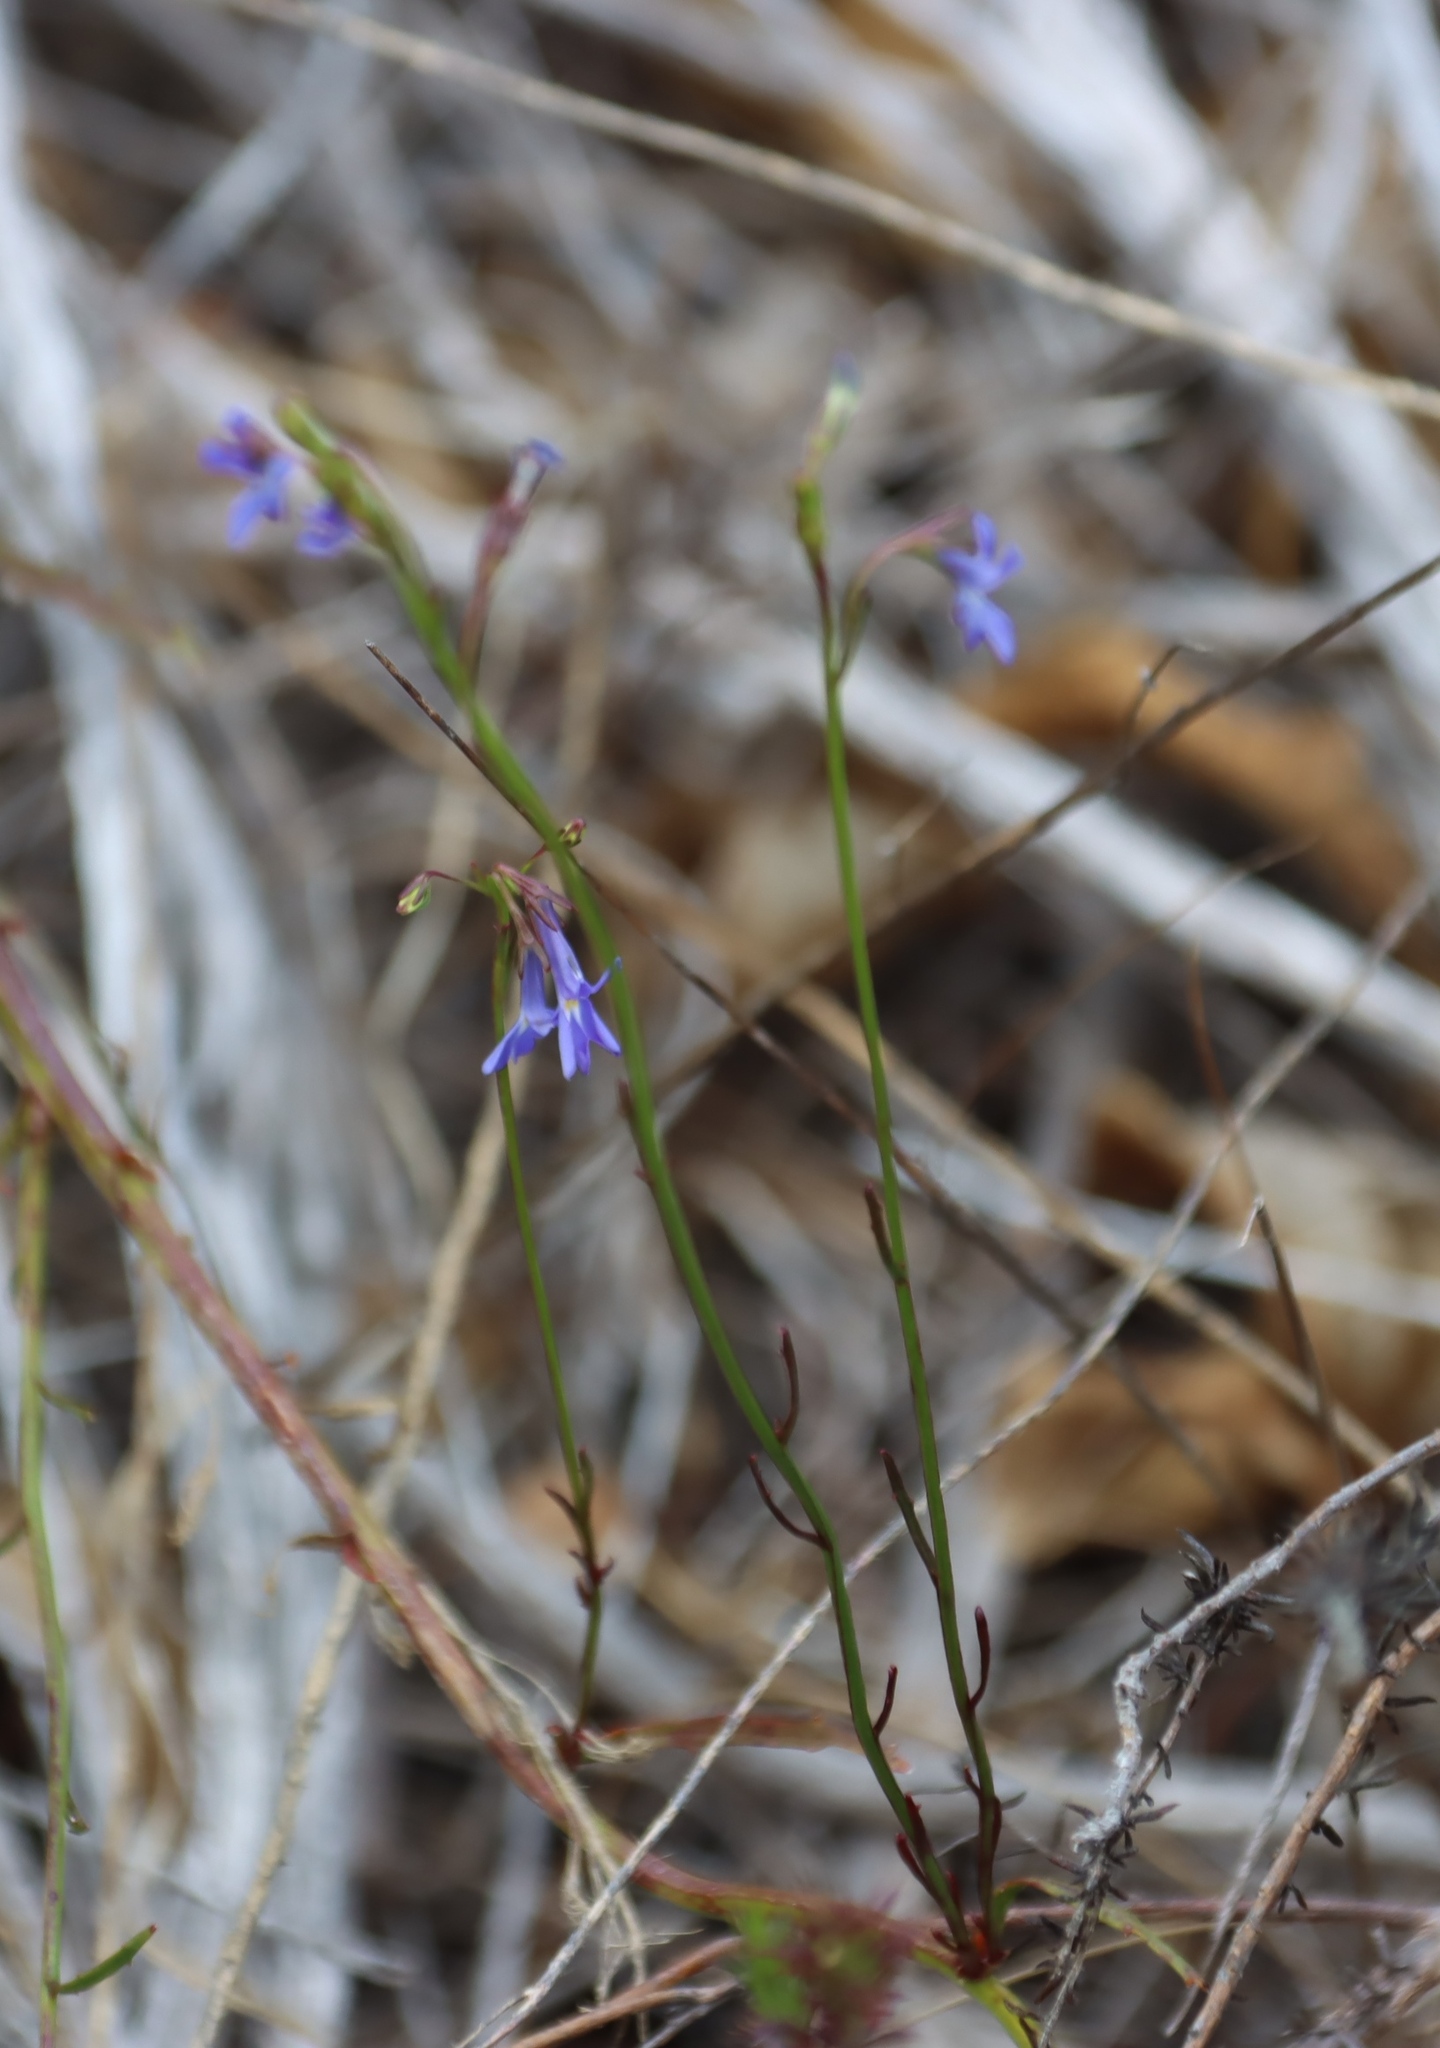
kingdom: Plantae
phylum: Tracheophyta
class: Magnoliopsida
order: Asterales
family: Campanulaceae
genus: Lobelia
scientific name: Lobelia comosa
